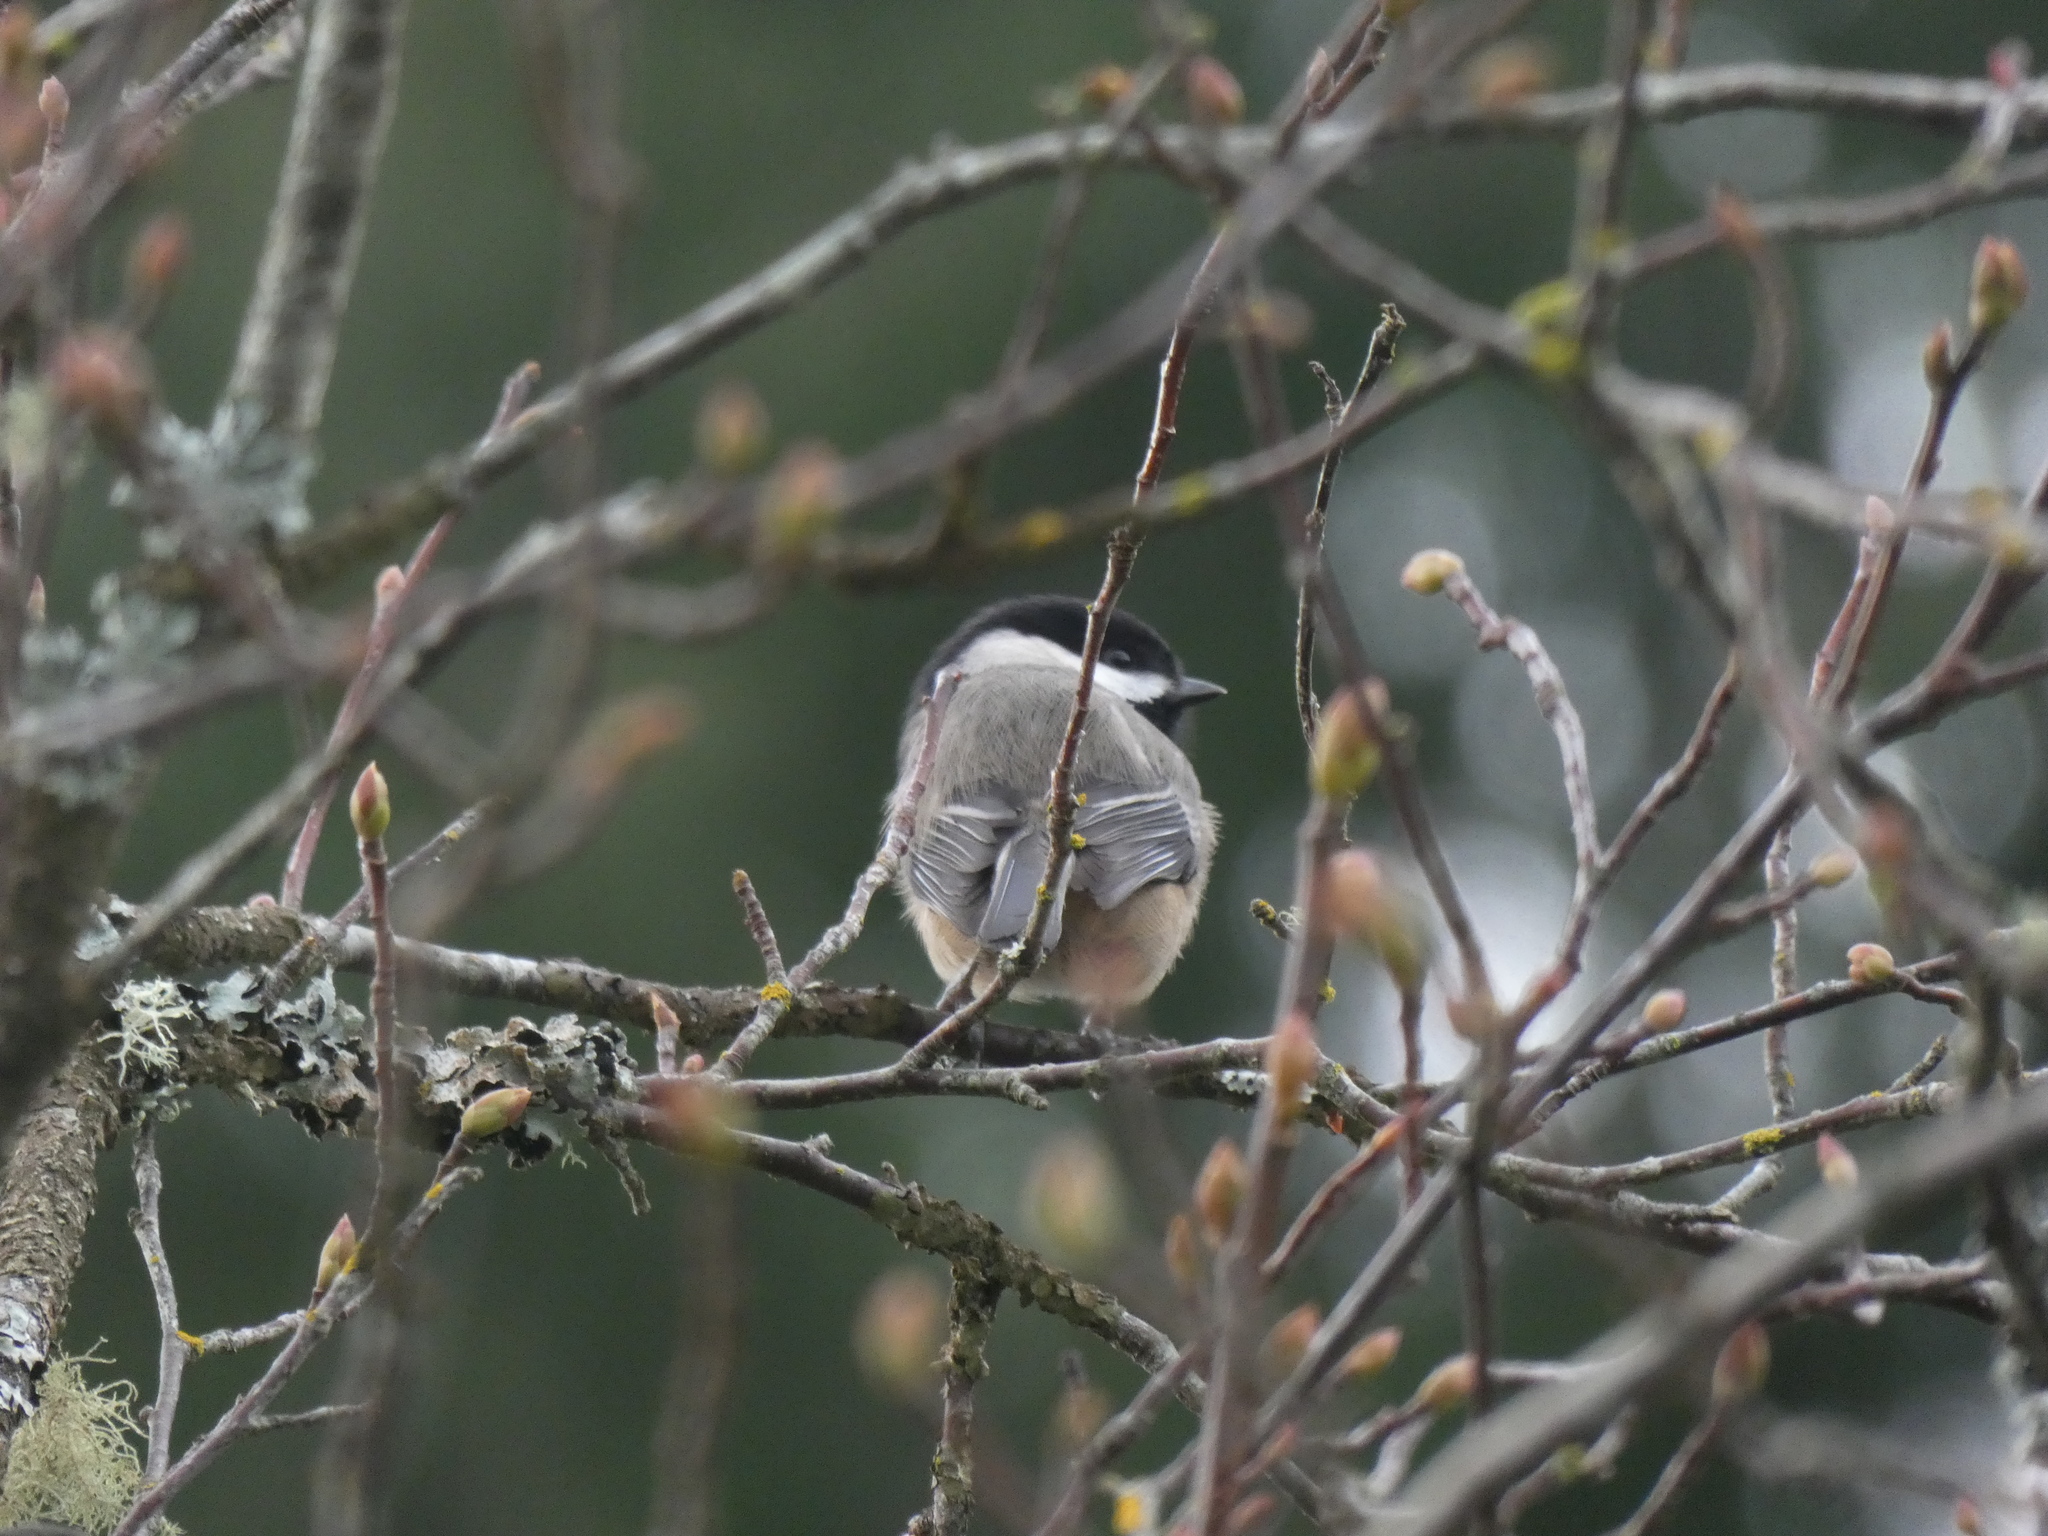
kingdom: Animalia
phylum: Chordata
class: Aves
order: Passeriformes
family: Paridae
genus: Poecile
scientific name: Poecile atricapillus
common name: Black-capped chickadee
